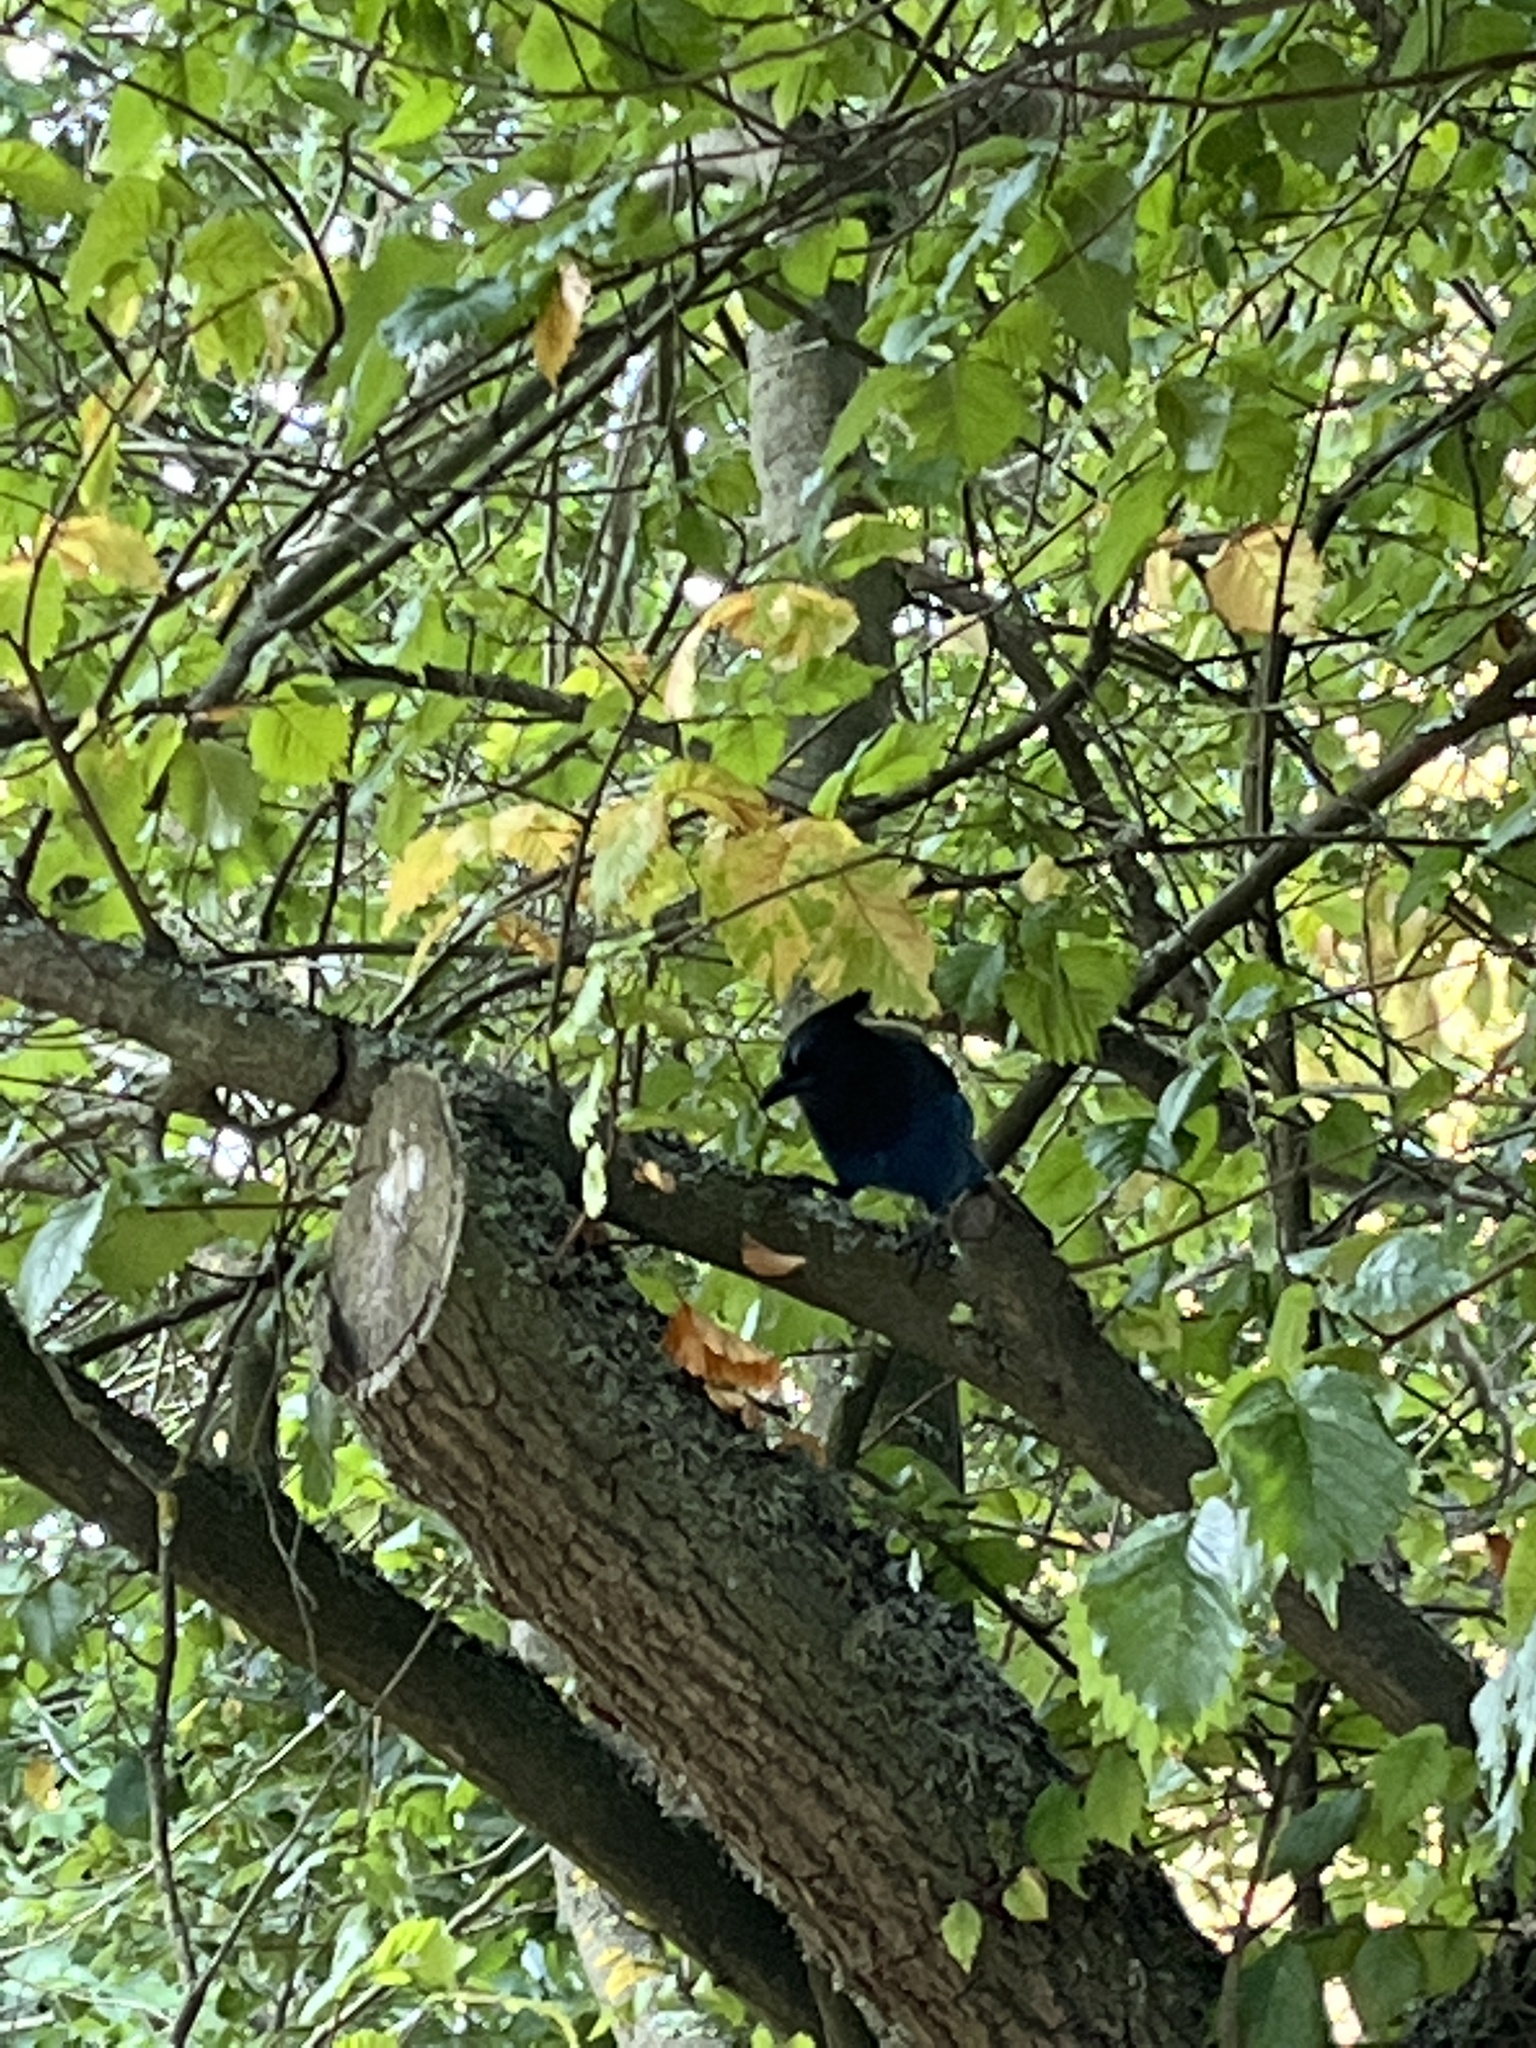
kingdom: Animalia
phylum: Chordata
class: Aves
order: Passeriformes
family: Corvidae
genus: Cyanocitta
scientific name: Cyanocitta stelleri
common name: Steller's jay
